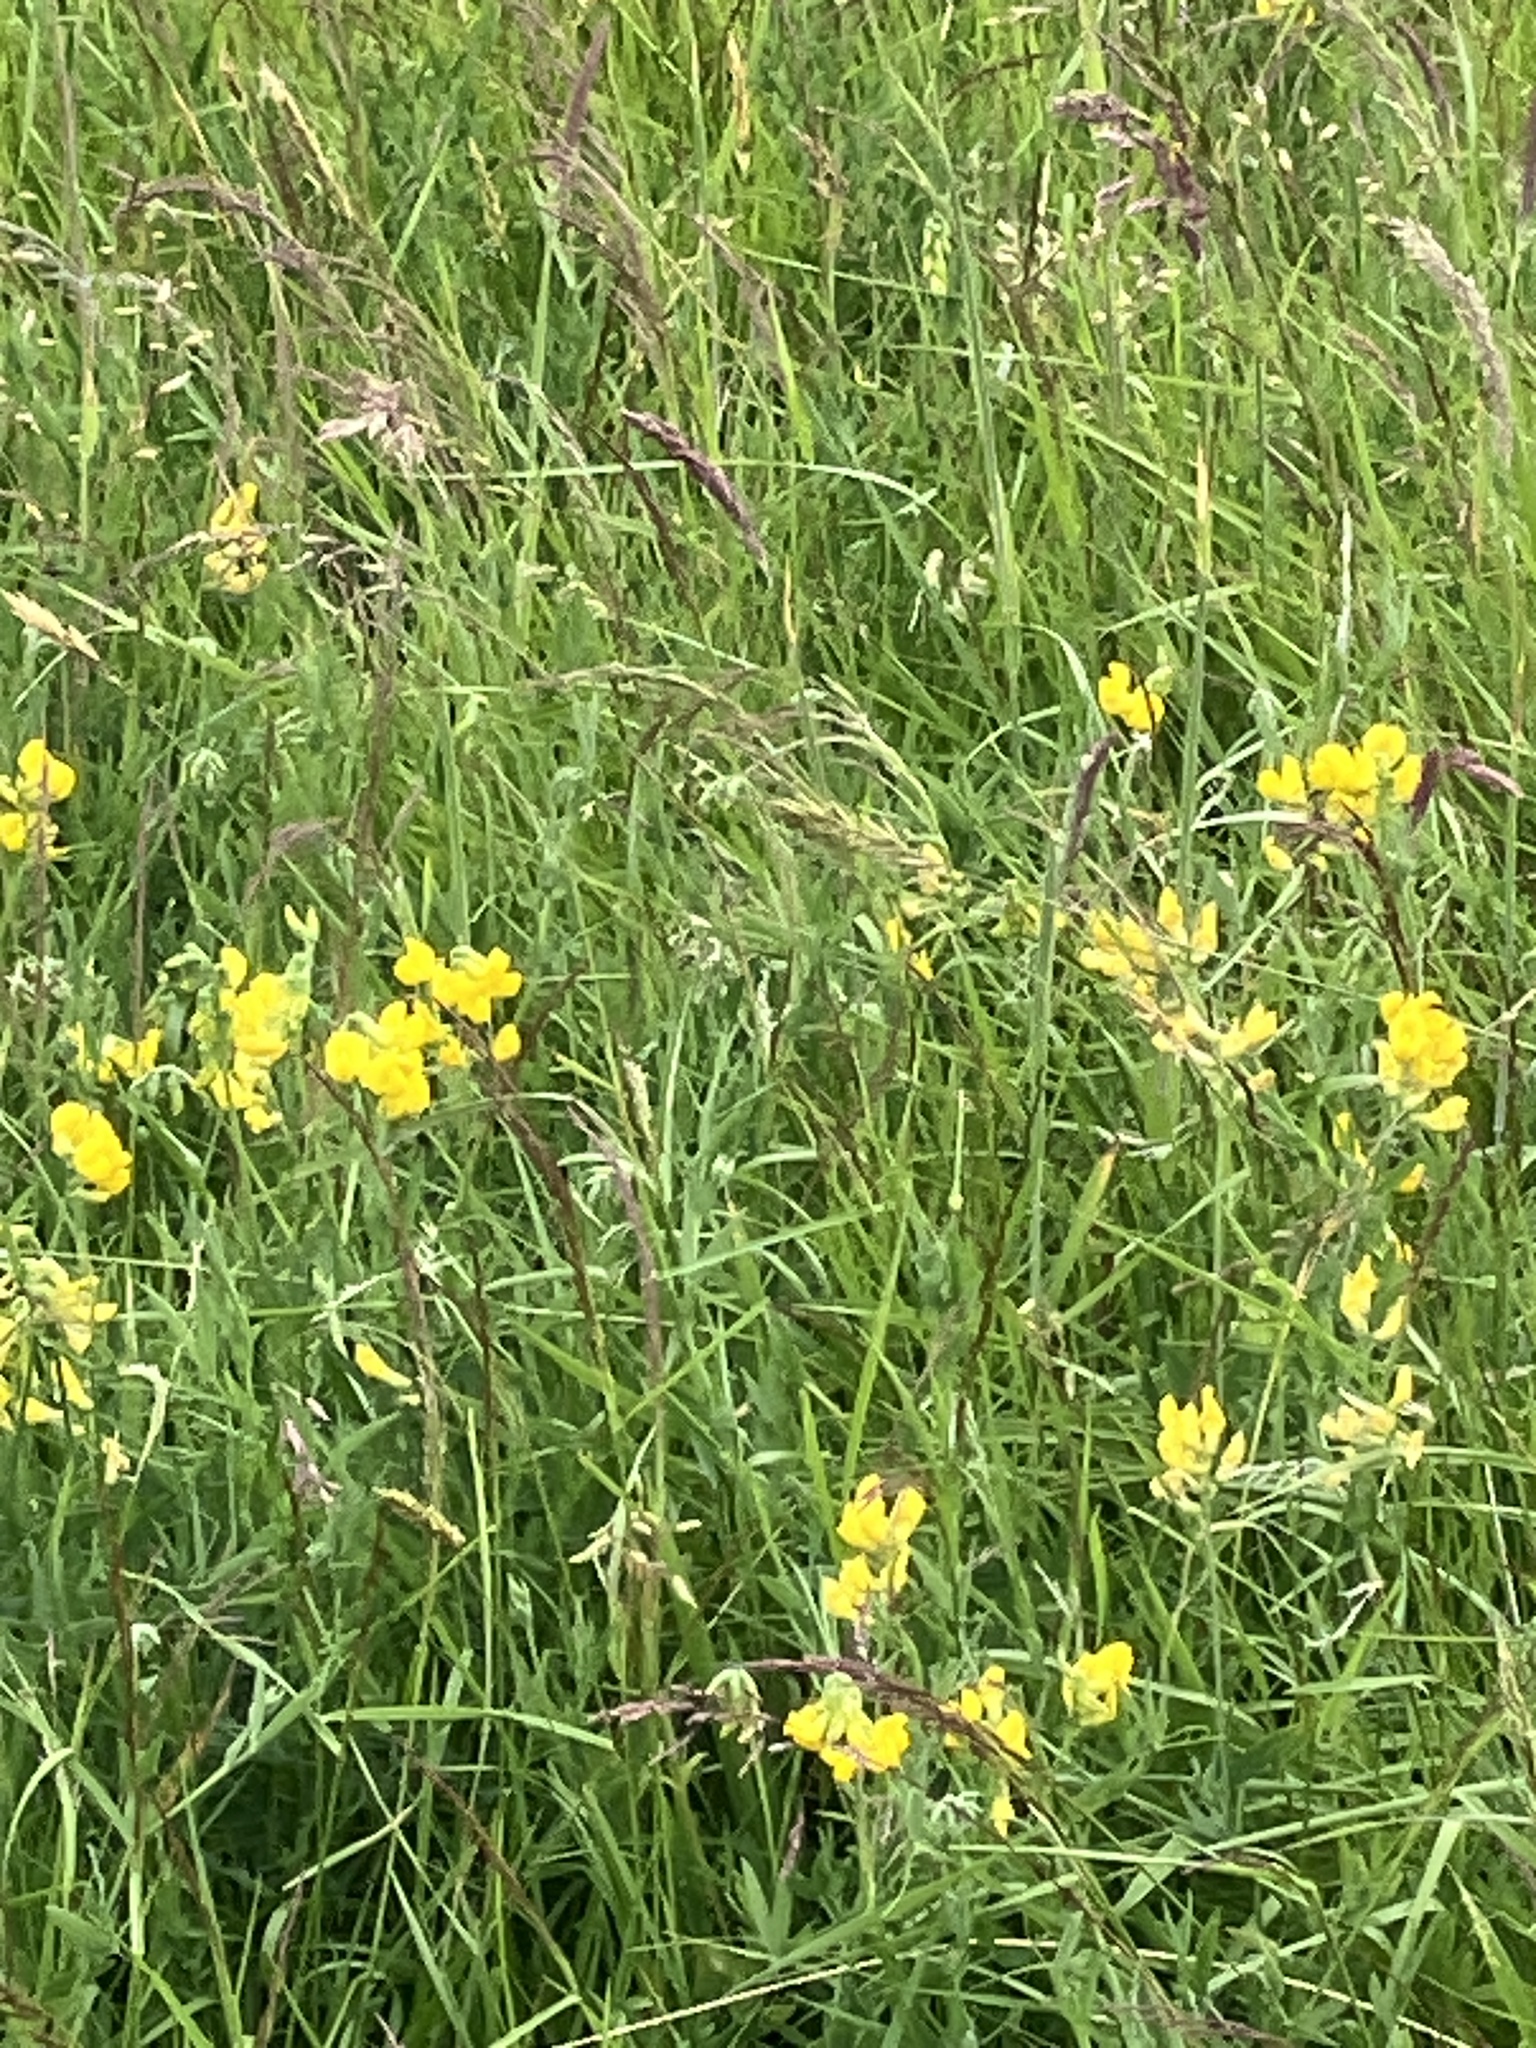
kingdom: Plantae
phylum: Tracheophyta
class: Magnoliopsida
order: Fabales
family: Fabaceae
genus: Lathyrus
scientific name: Lathyrus pratensis
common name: Meadow vetchling
